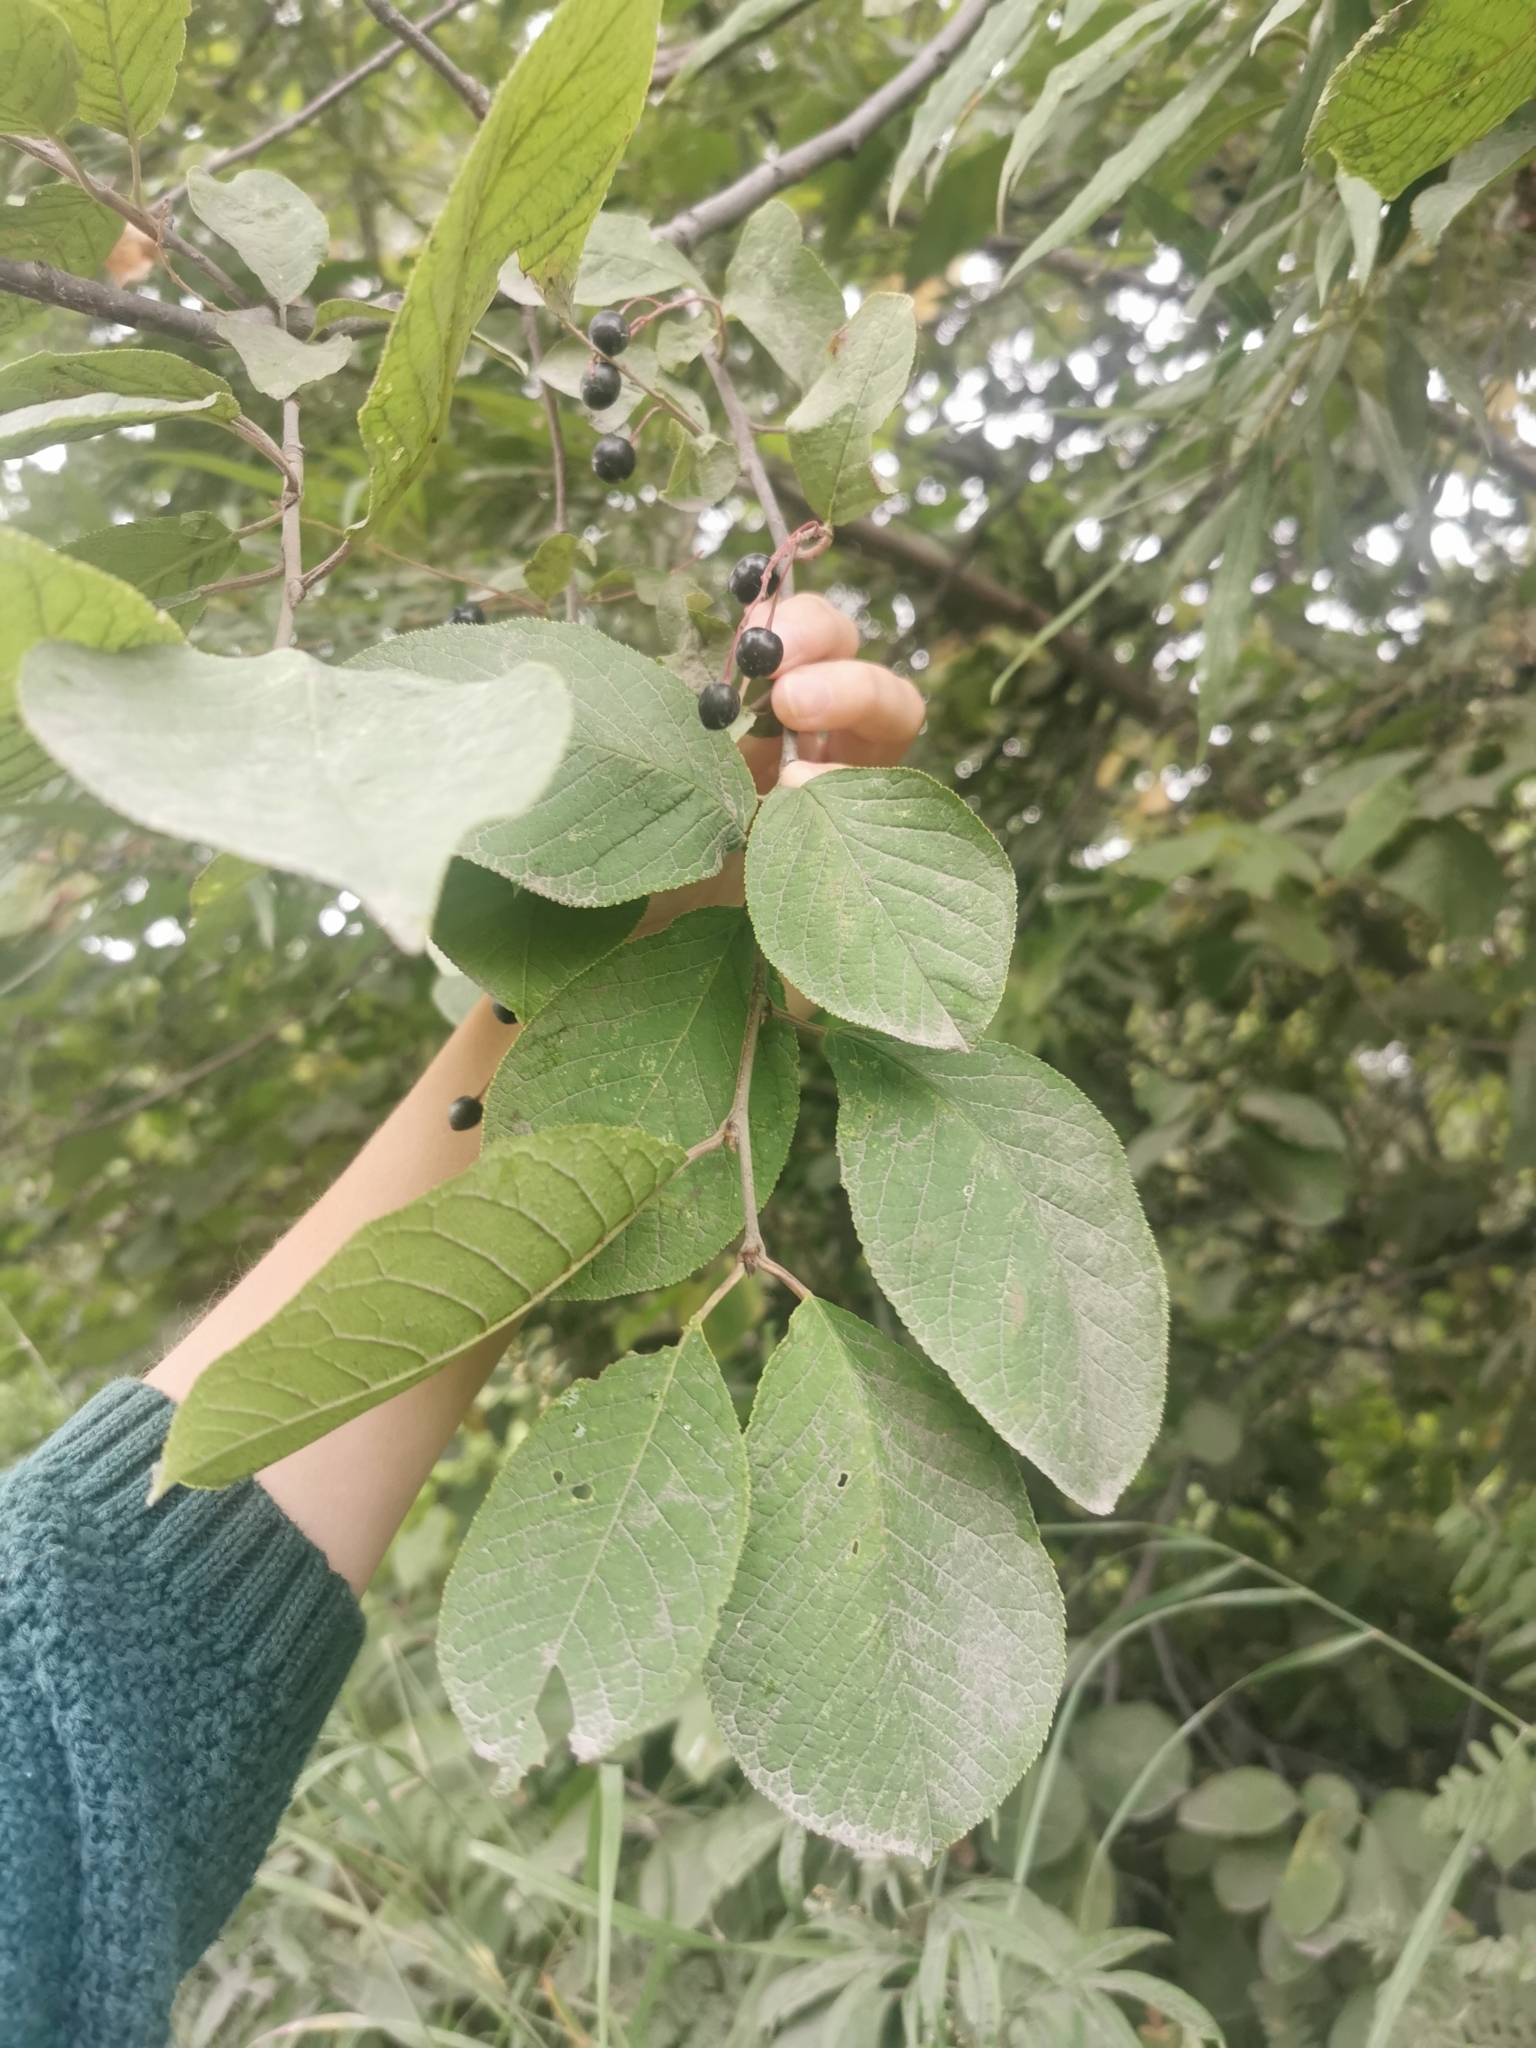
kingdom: Plantae
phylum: Tracheophyta
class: Magnoliopsida
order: Rosales
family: Rosaceae
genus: Prunus
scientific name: Prunus padus
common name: Bird cherry
